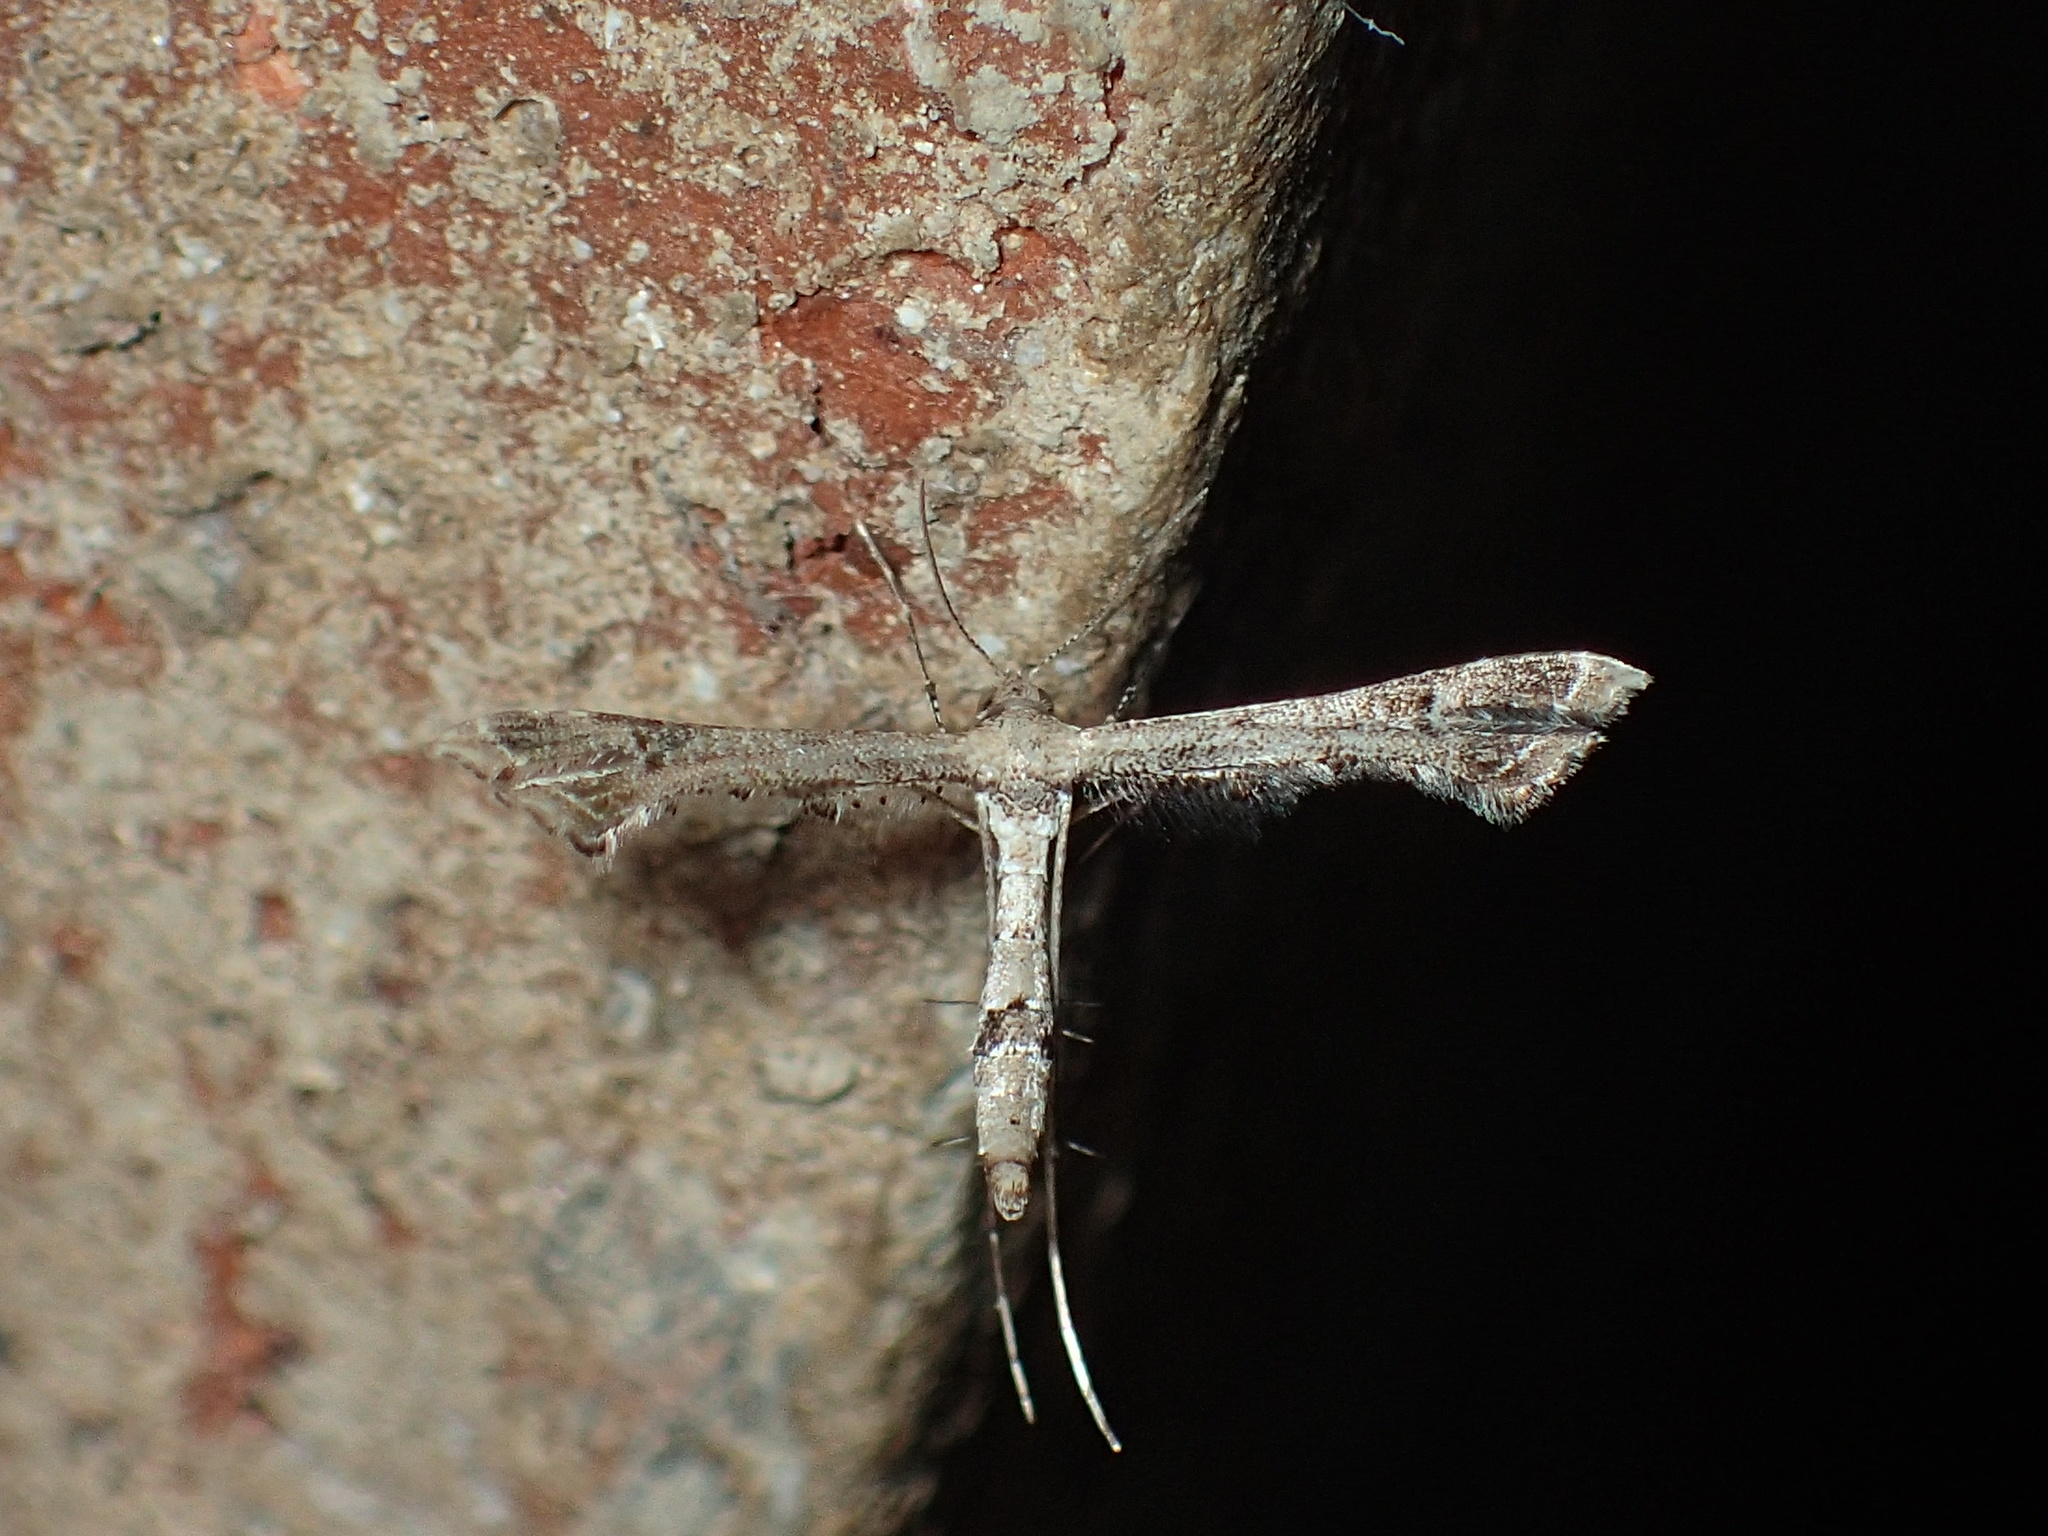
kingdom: Animalia
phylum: Arthropoda
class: Insecta
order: Lepidoptera
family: Pterophoridae
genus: Lantanophaga
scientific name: Lantanophaga pusillidactylus
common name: Moth
